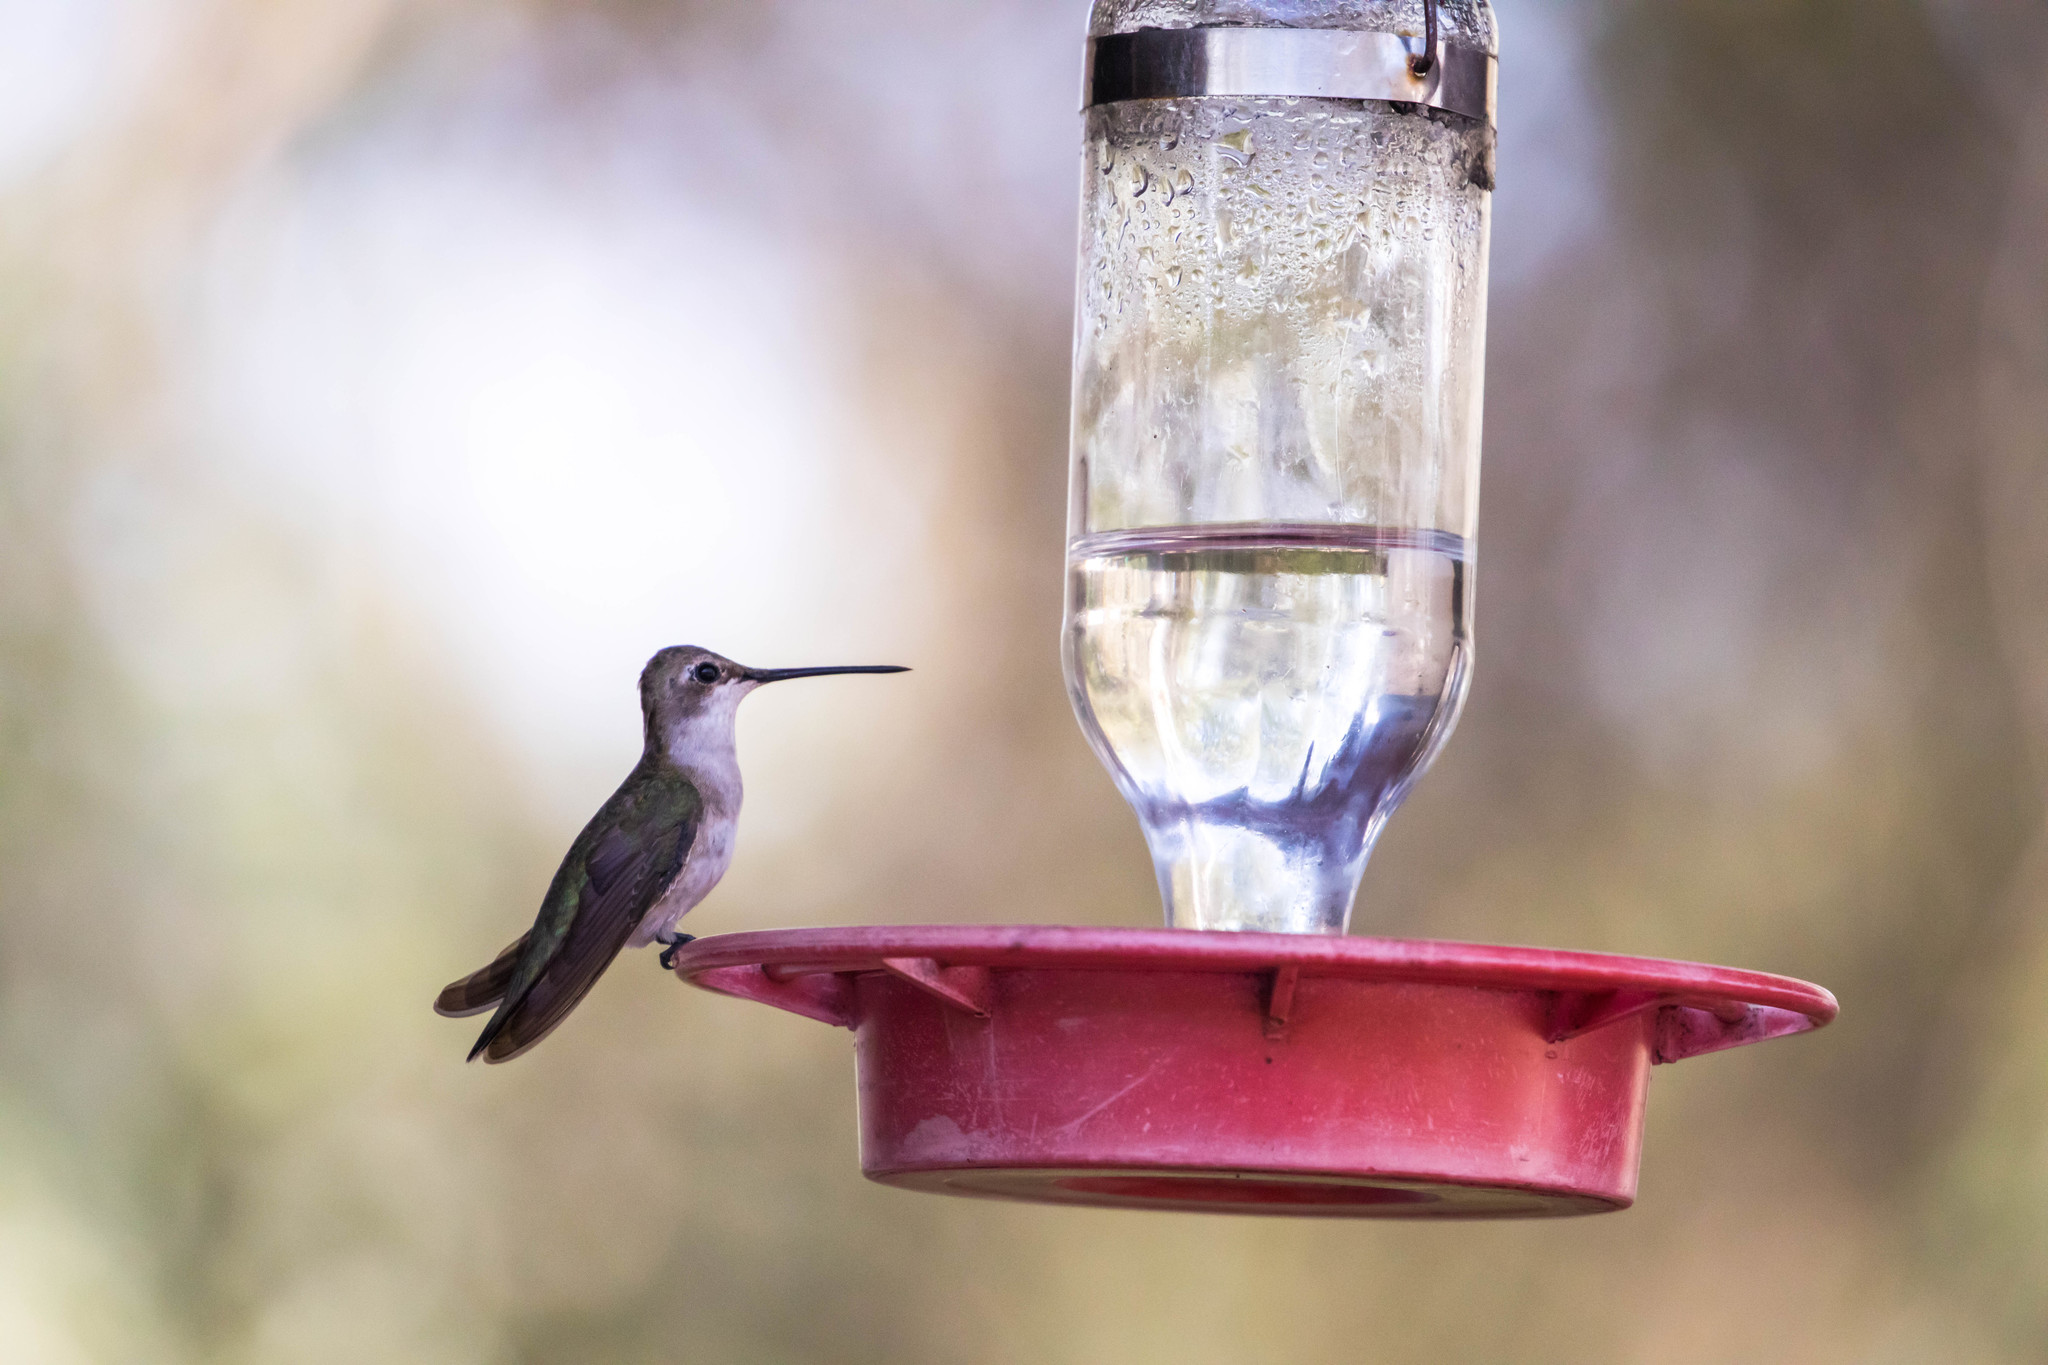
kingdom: Animalia
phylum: Chordata
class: Aves
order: Apodiformes
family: Trochilidae
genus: Archilochus
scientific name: Archilochus alexandri
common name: Black-chinned hummingbird
